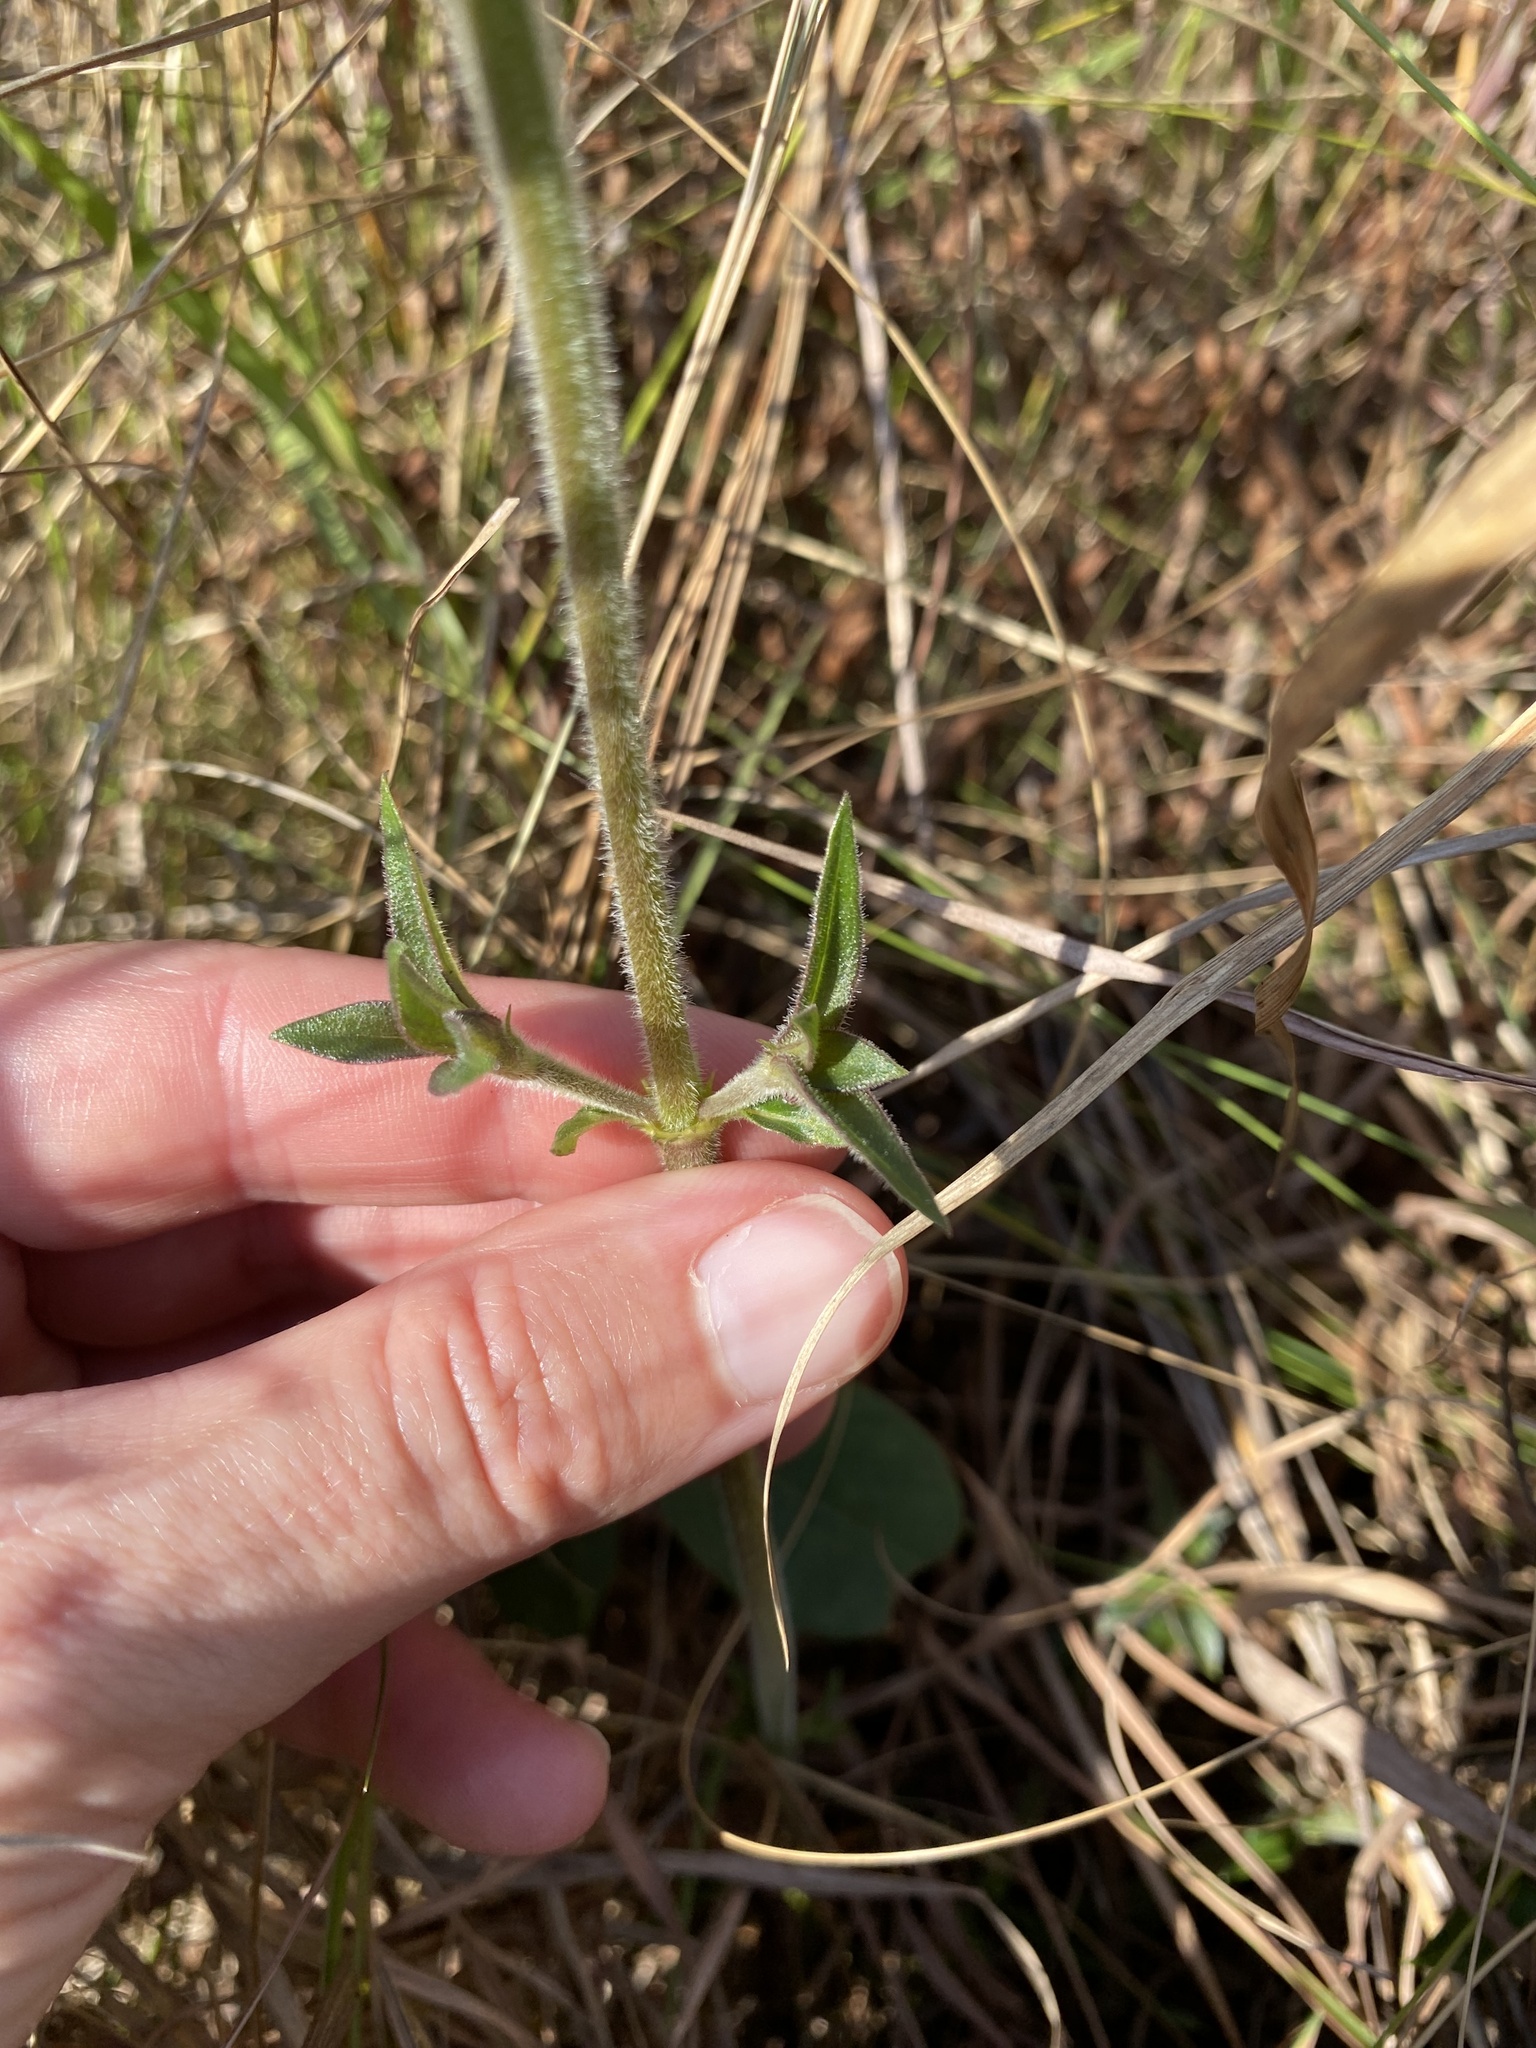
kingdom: Plantae
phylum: Tracheophyta
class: Magnoliopsida
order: Gentianales
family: Rubiaceae
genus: Pentanisia
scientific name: Pentanisia prunelloides
